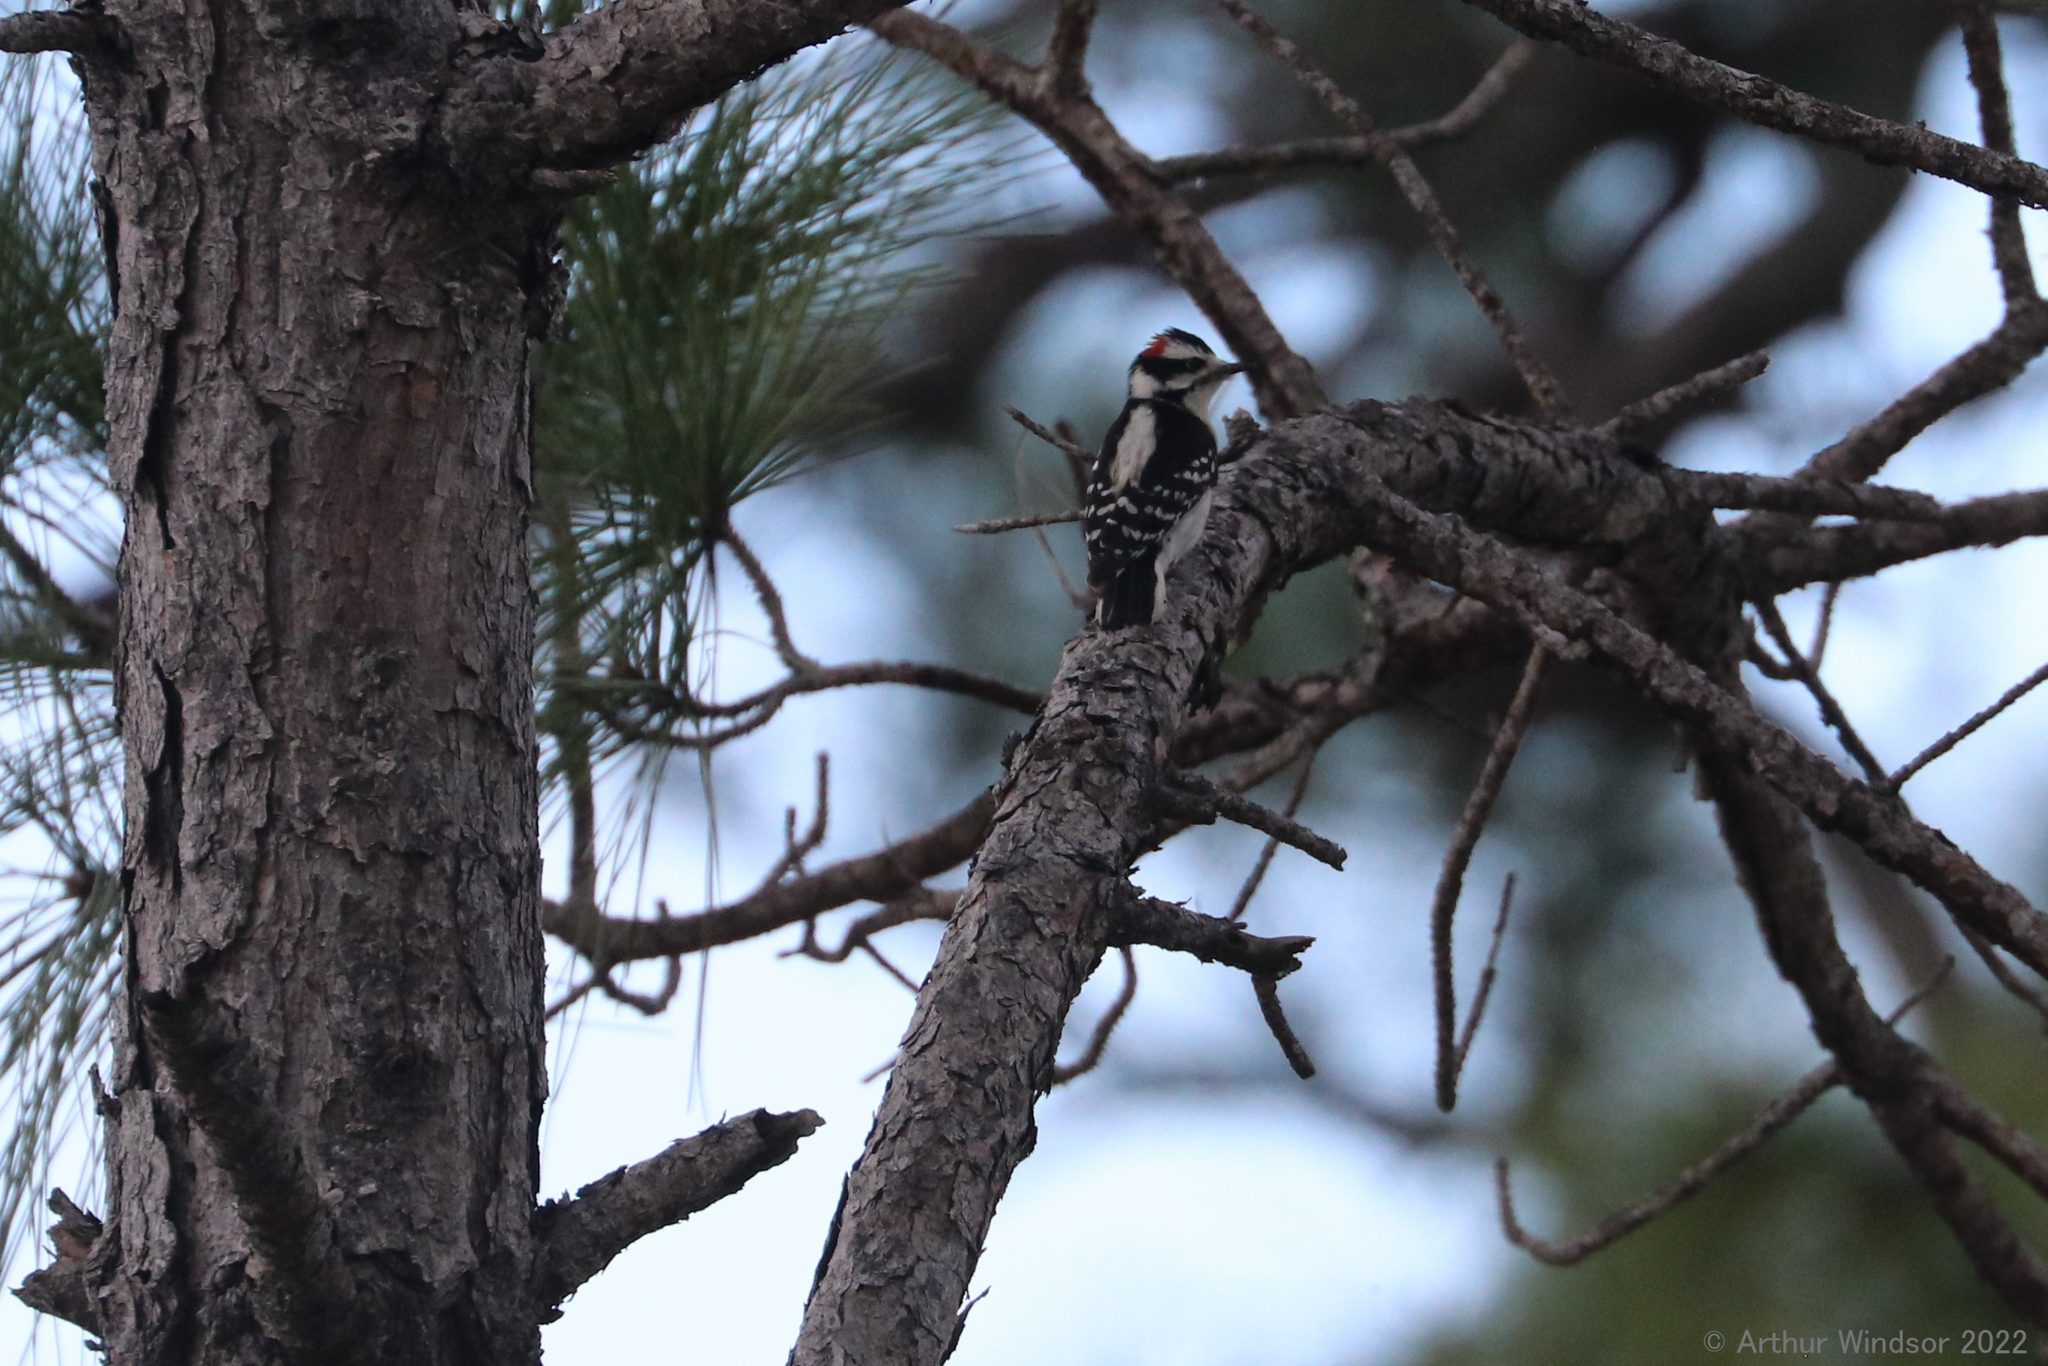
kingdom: Animalia
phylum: Chordata
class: Aves
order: Piciformes
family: Picidae
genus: Dryobates
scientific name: Dryobates pubescens
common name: Downy woodpecker
